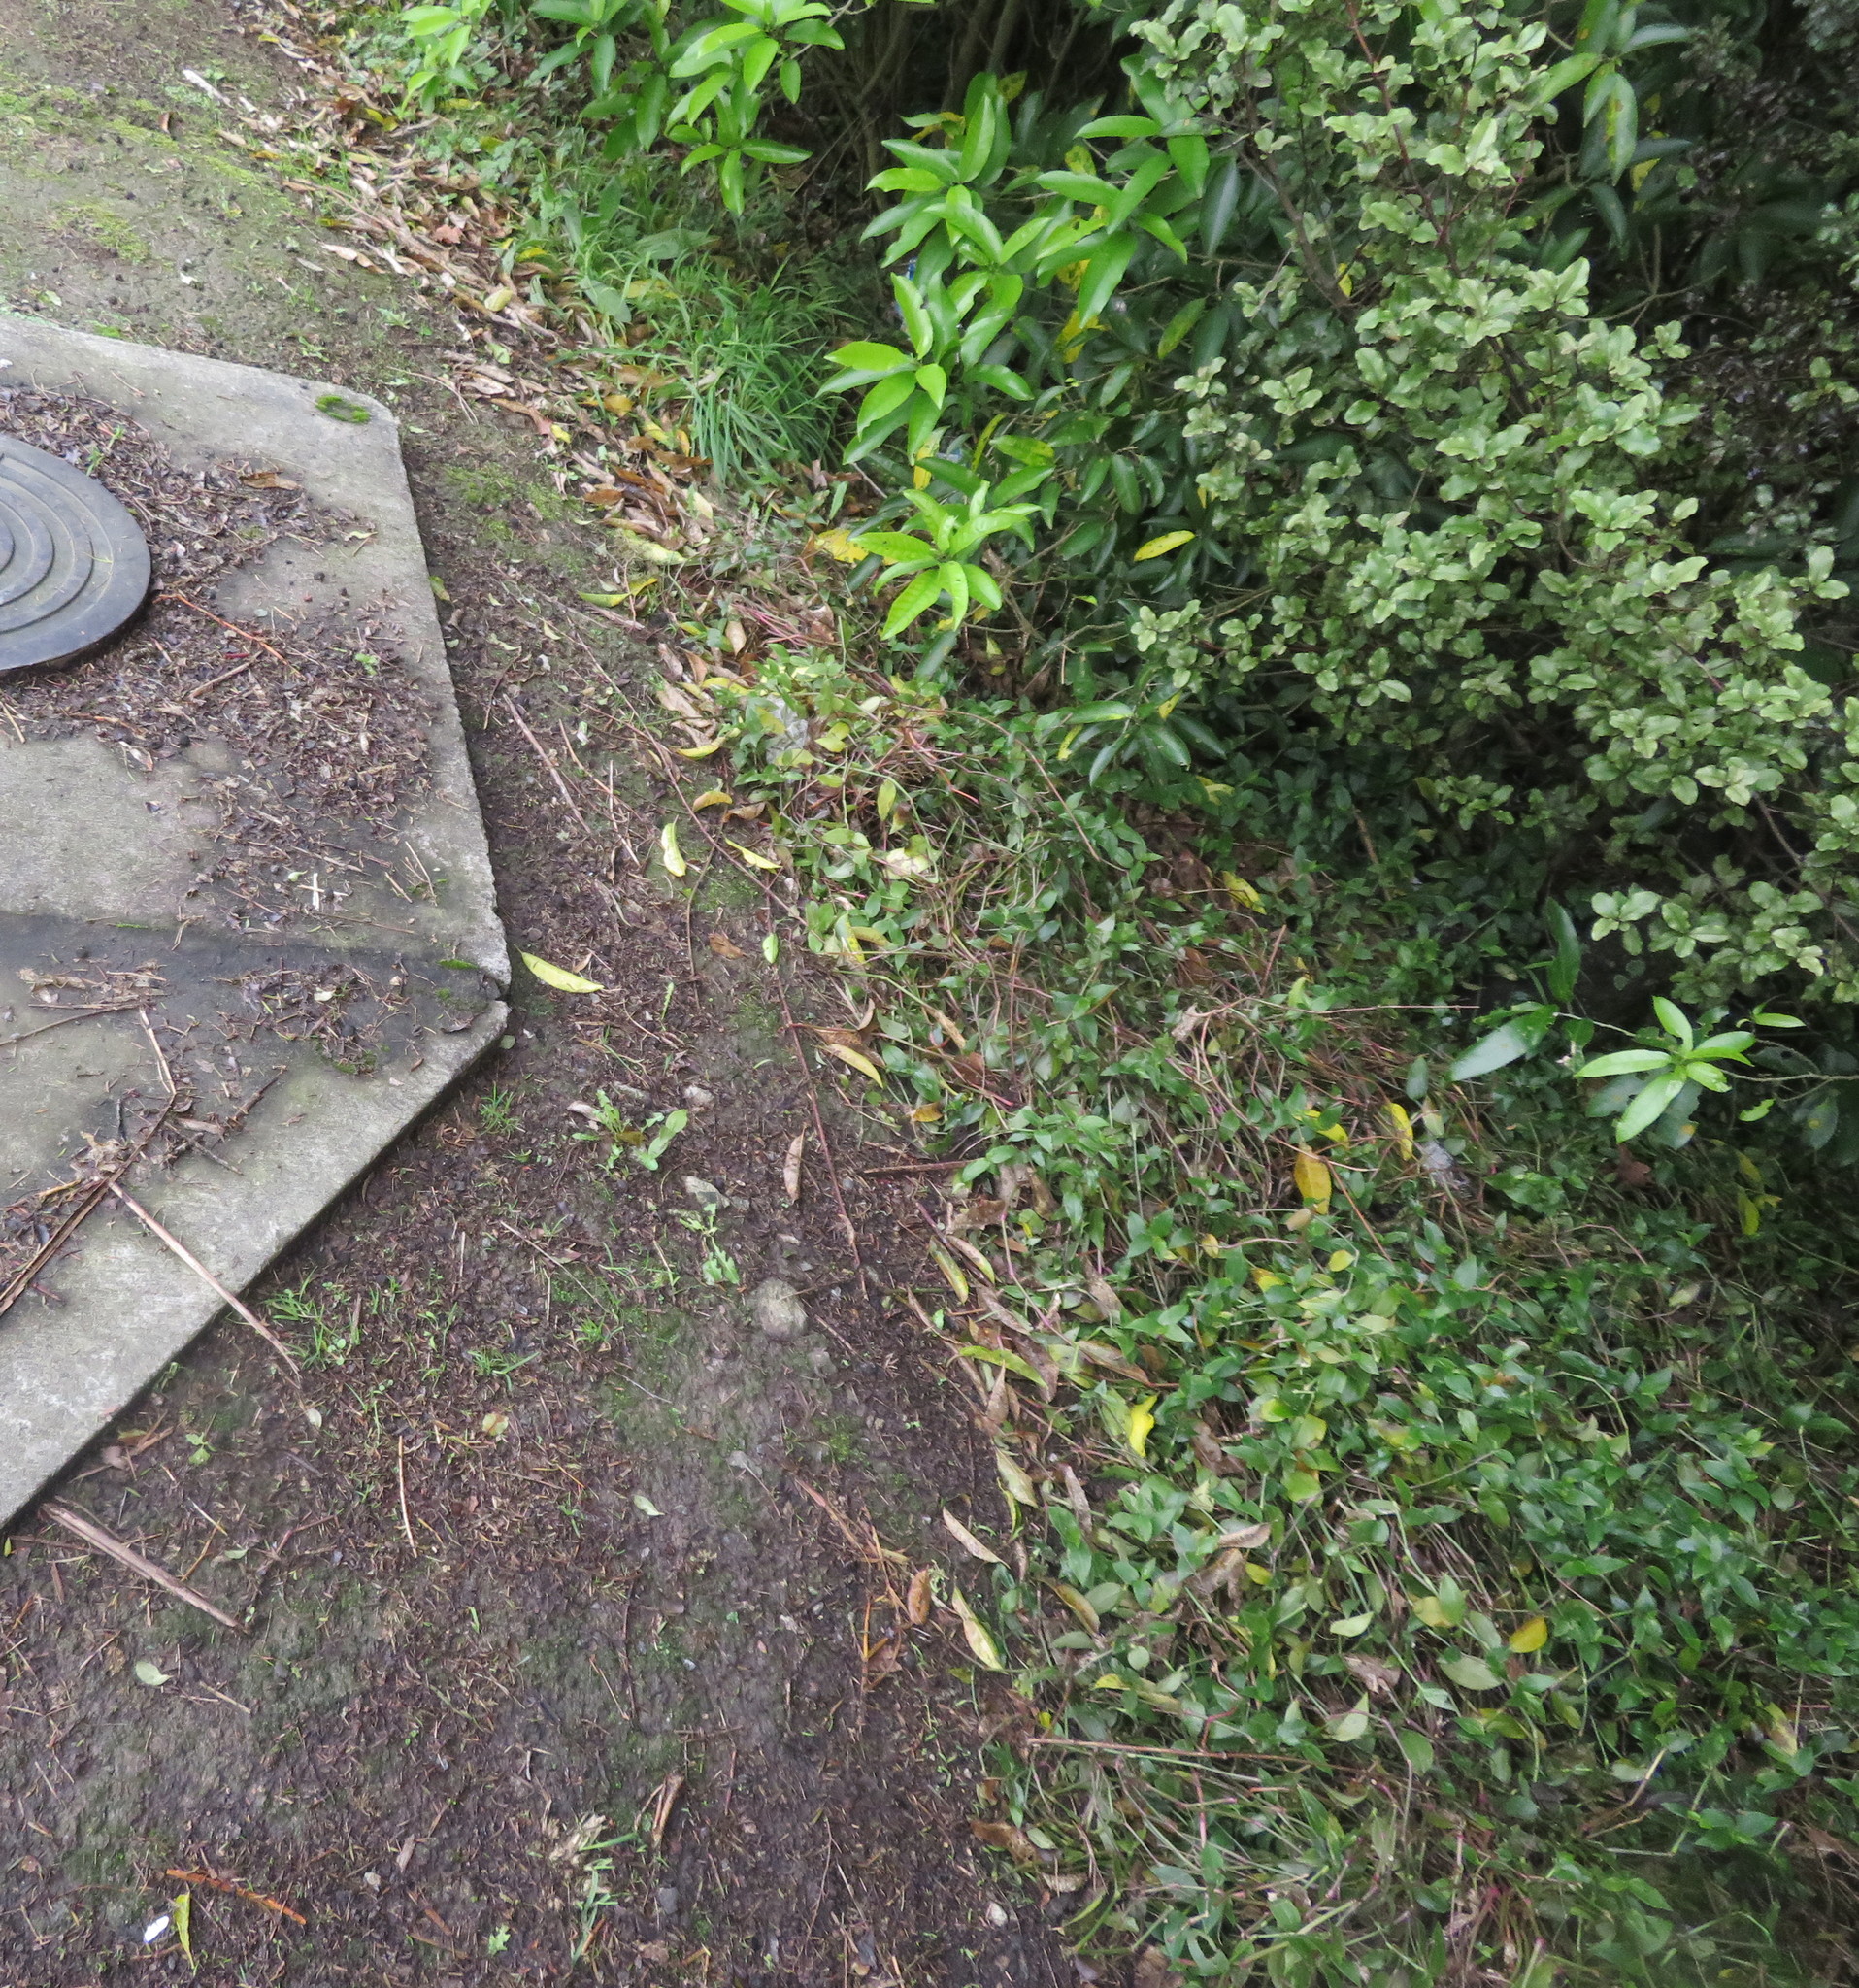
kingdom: Plantae
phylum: Tracheophyta
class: Liliopsida
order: Commelinales
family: Commelinaceae
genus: Tradescantia
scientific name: Tradescantia fluminensis
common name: Wandering-jew
